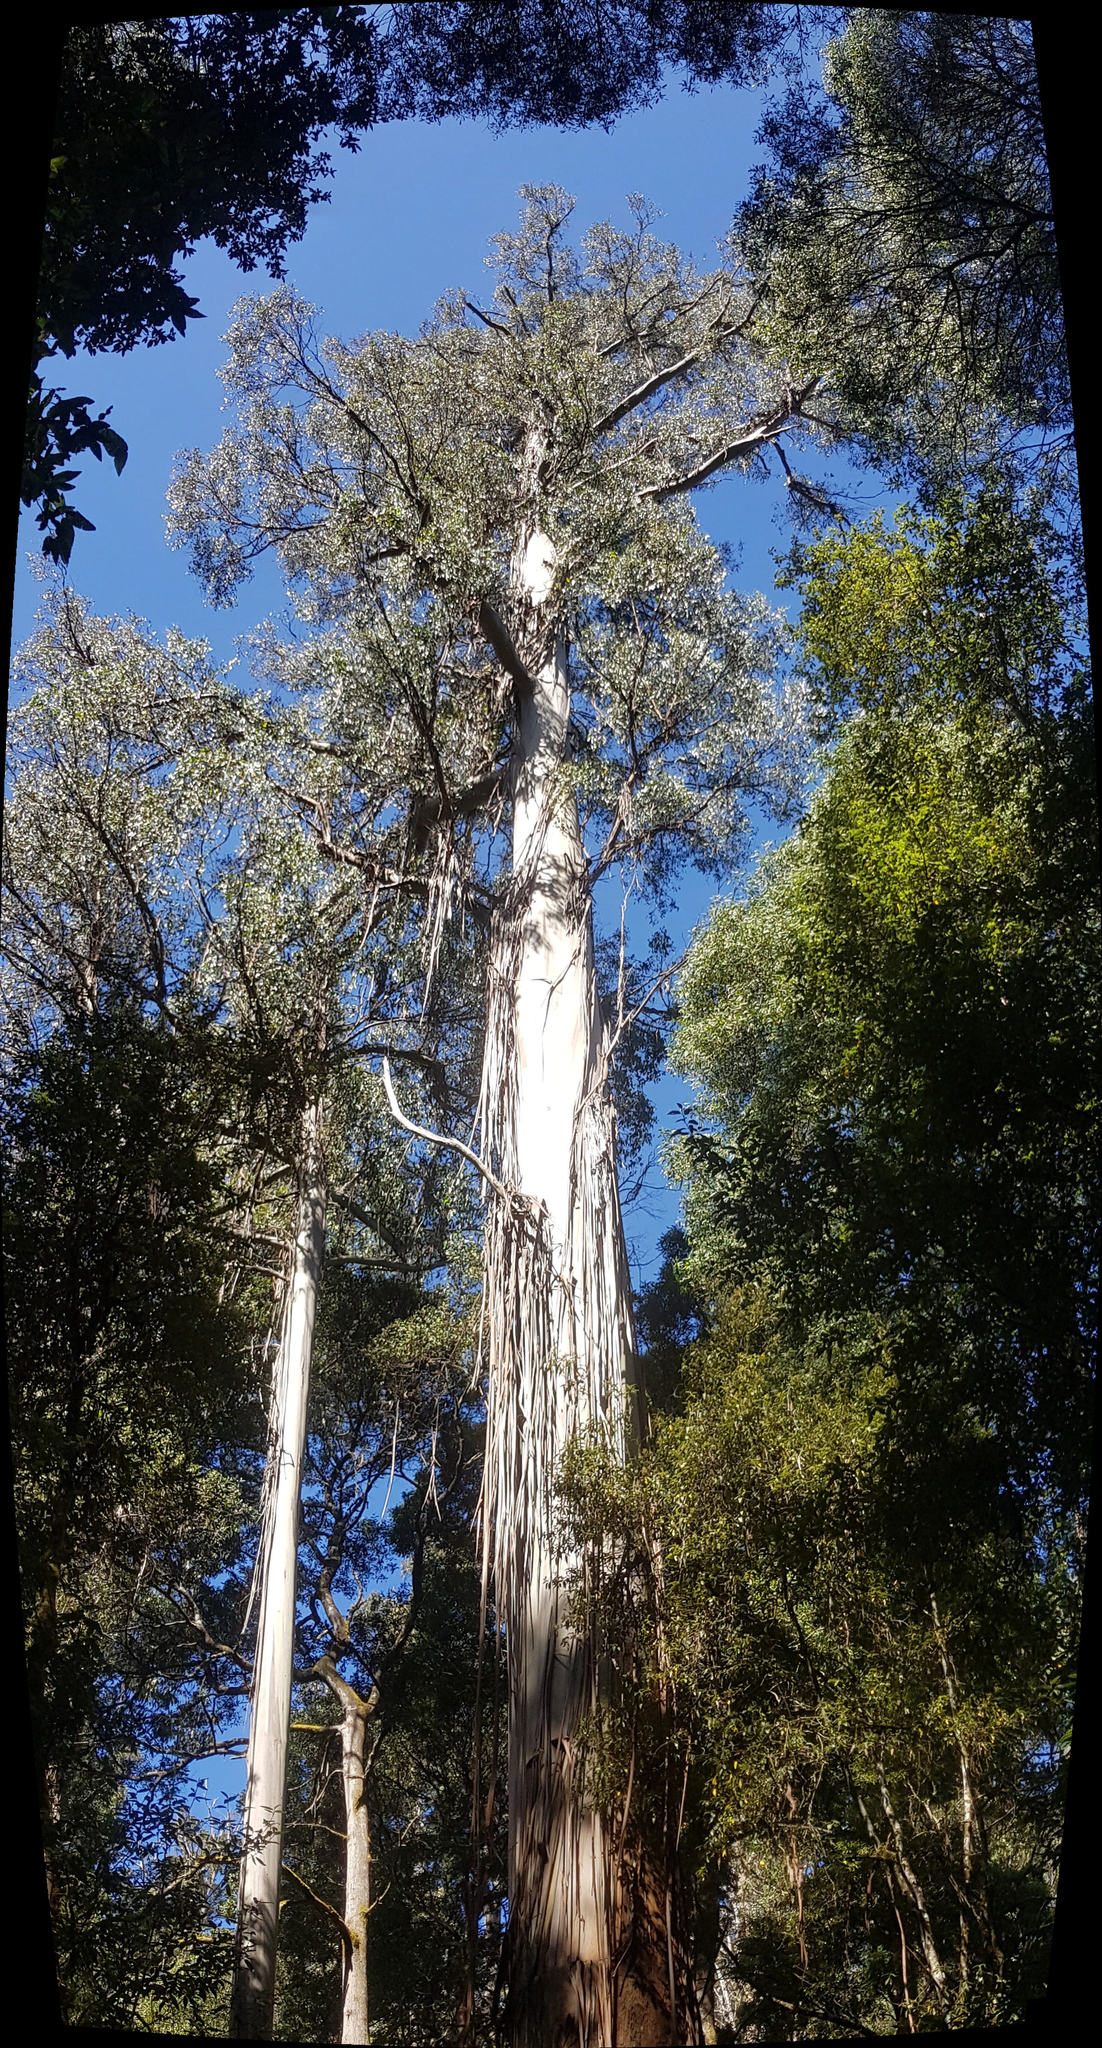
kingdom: Plantae
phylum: Tracheophyta
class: Magnoliopsida
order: Myrtales
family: Myrtaceae
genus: Eucalyptus
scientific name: Eucalyptus regnans
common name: Stringy gum
